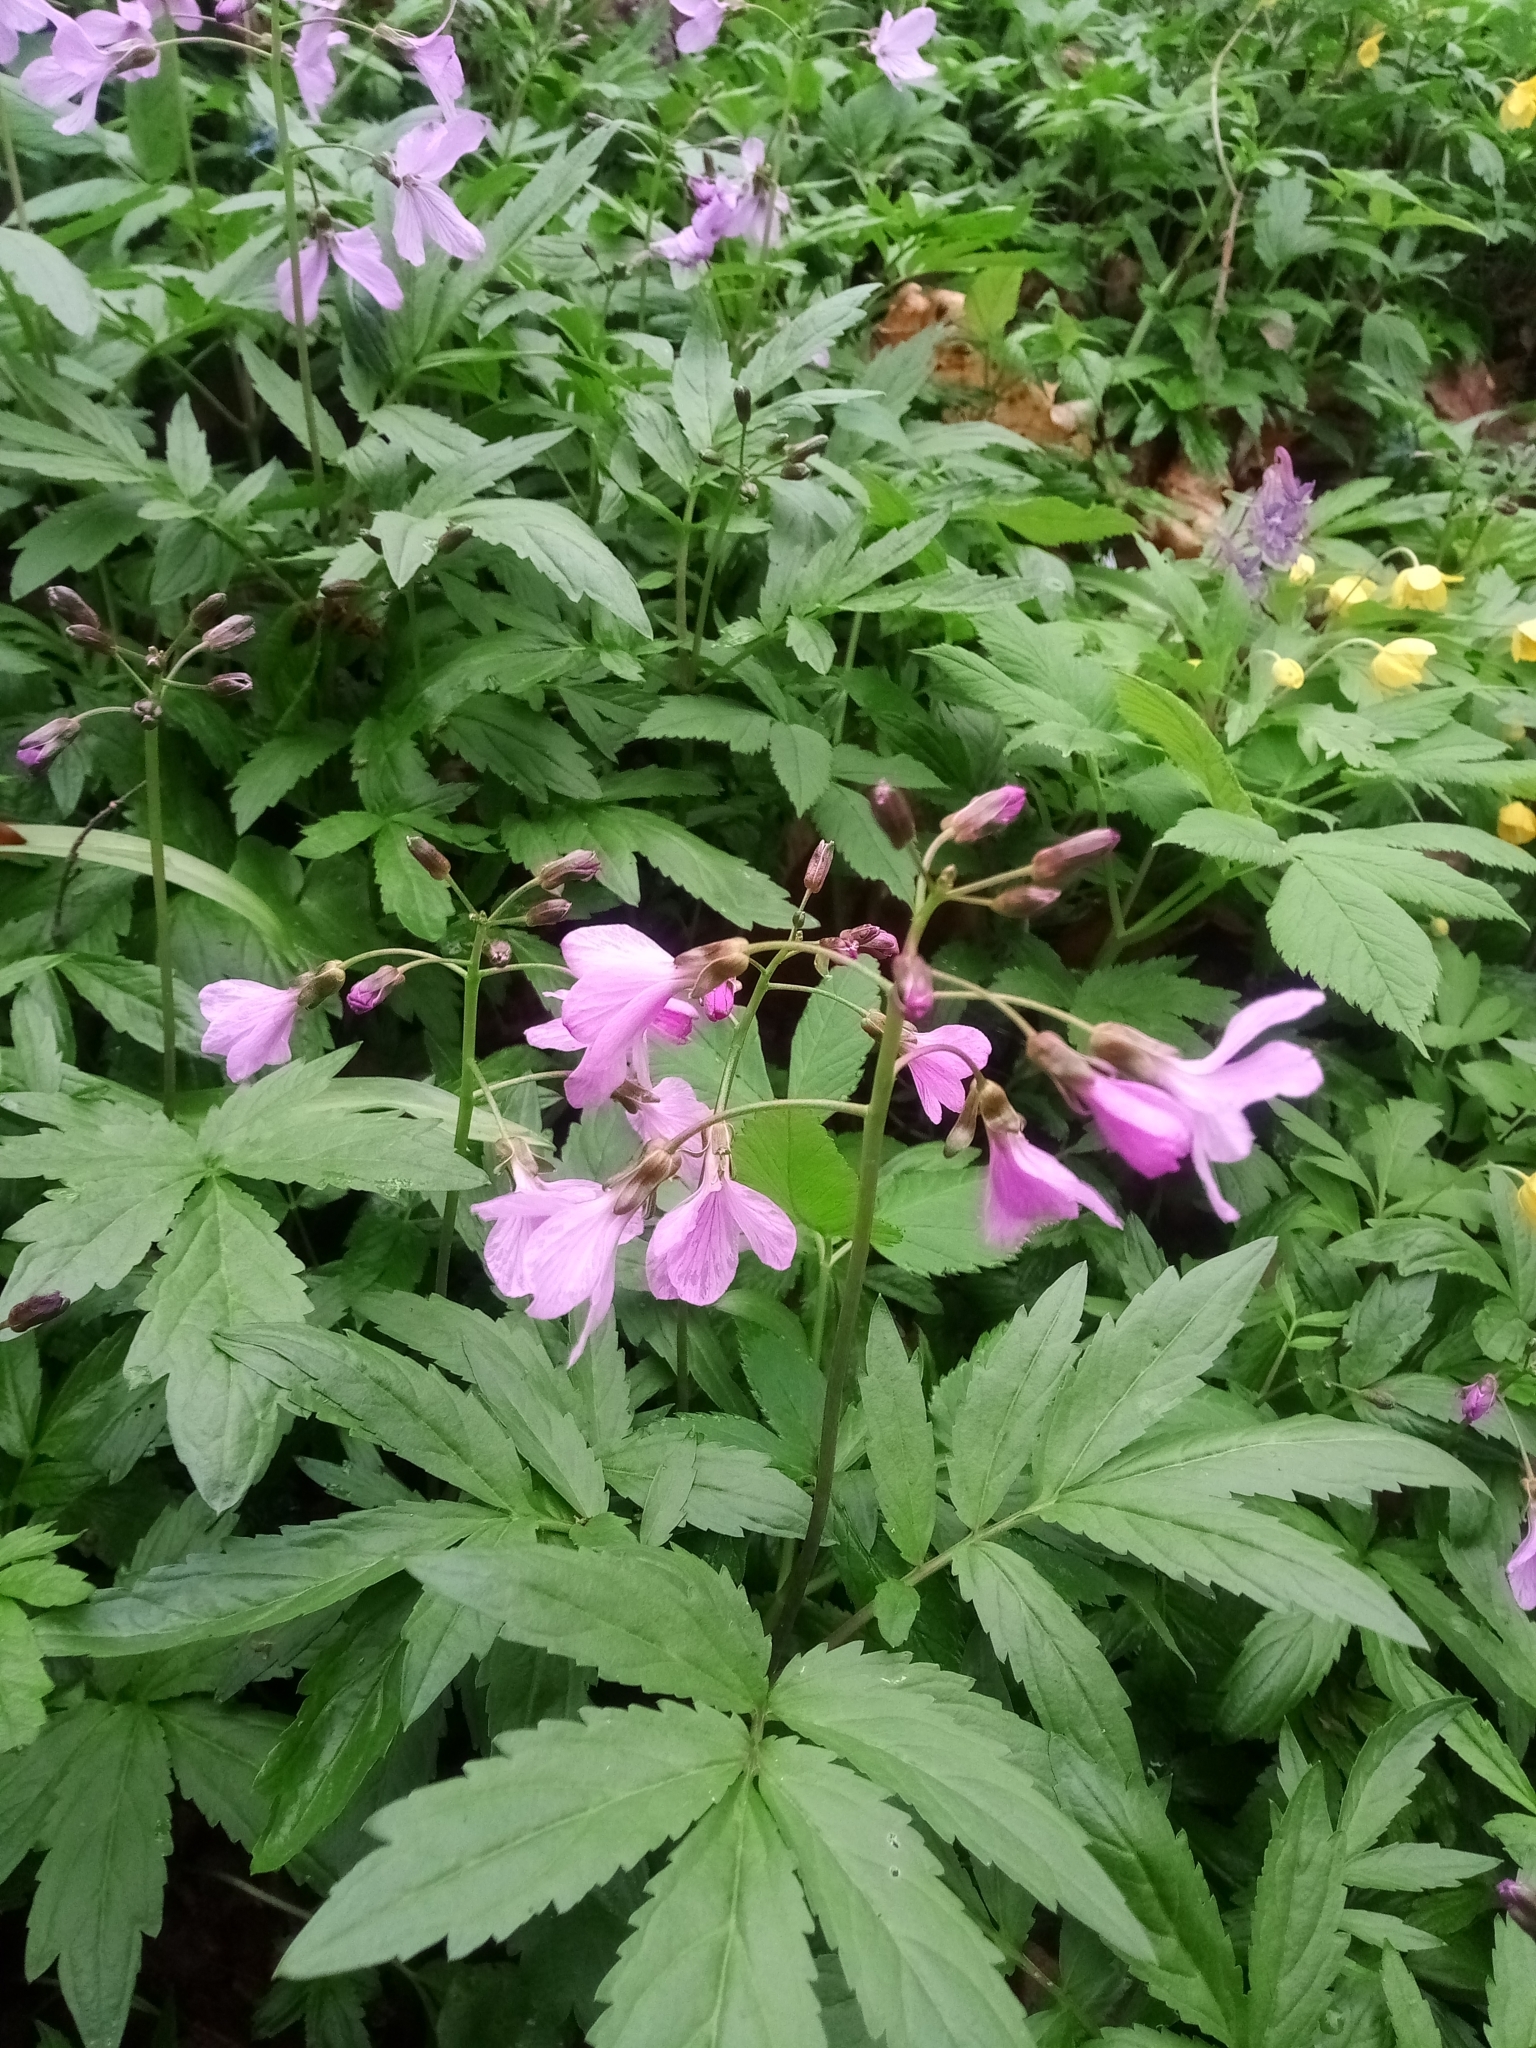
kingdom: Plantae
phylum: Tracheophyta
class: Magnoliopsida
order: Brassicales
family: Brassicaceae
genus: Cardamine
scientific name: Cardamine quinquefolia
